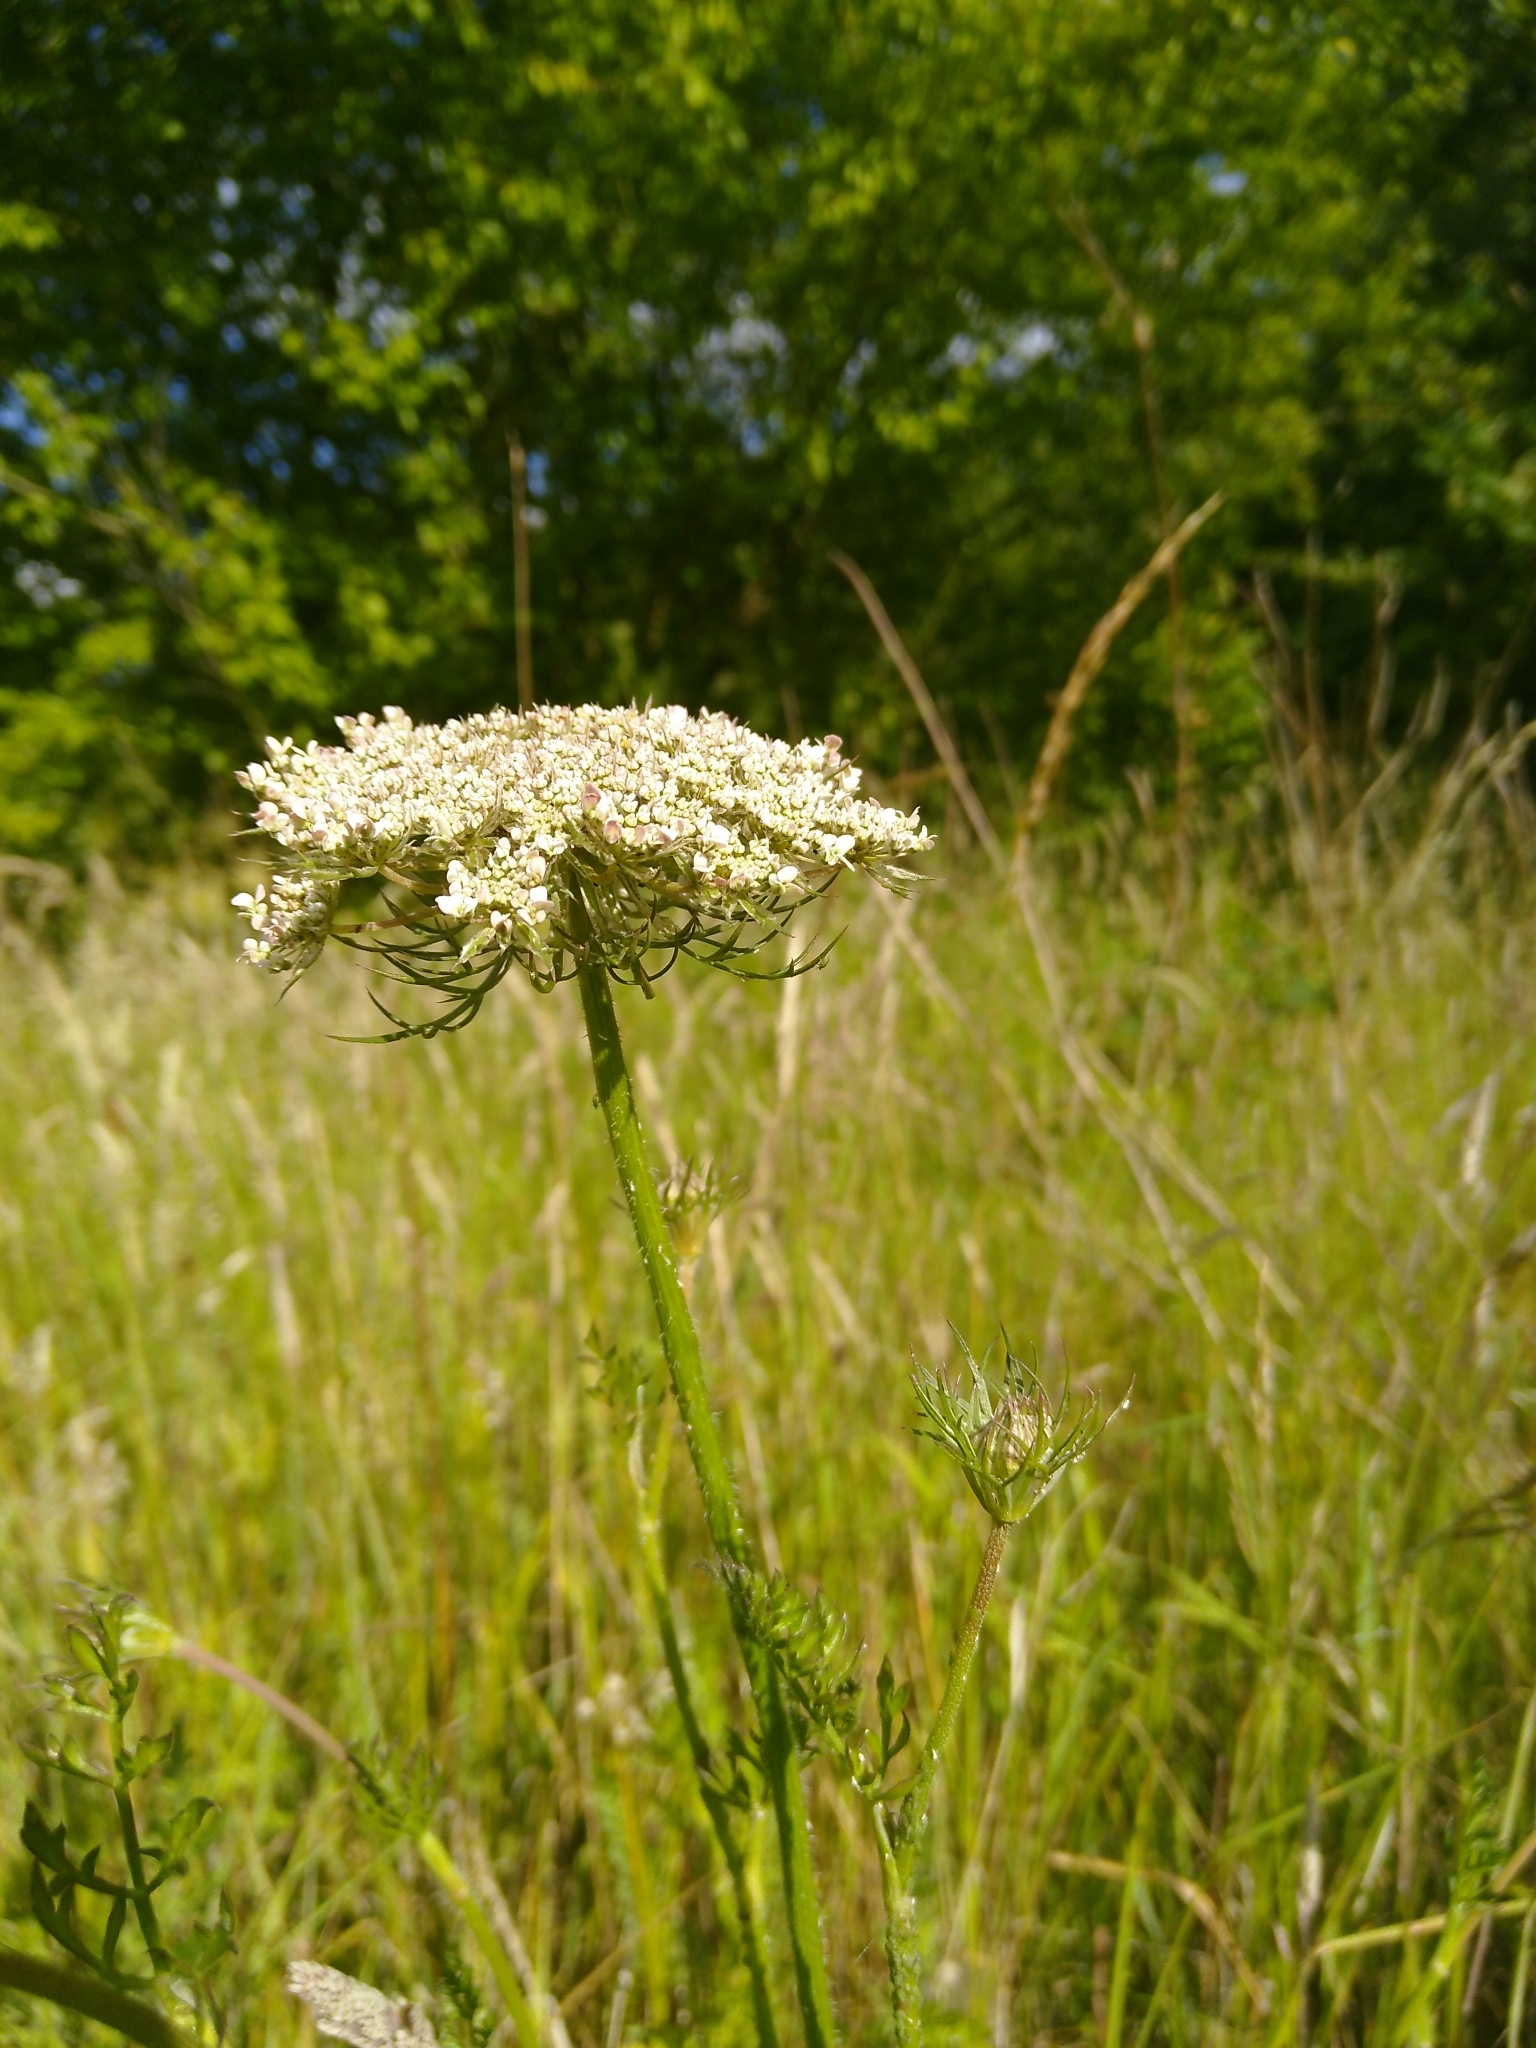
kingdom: Plantae
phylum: Tracheophyta
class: Magnoliopsida
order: Apiales
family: Apiaceae
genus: Daucus
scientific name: Daucus carota
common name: Wild carrot
